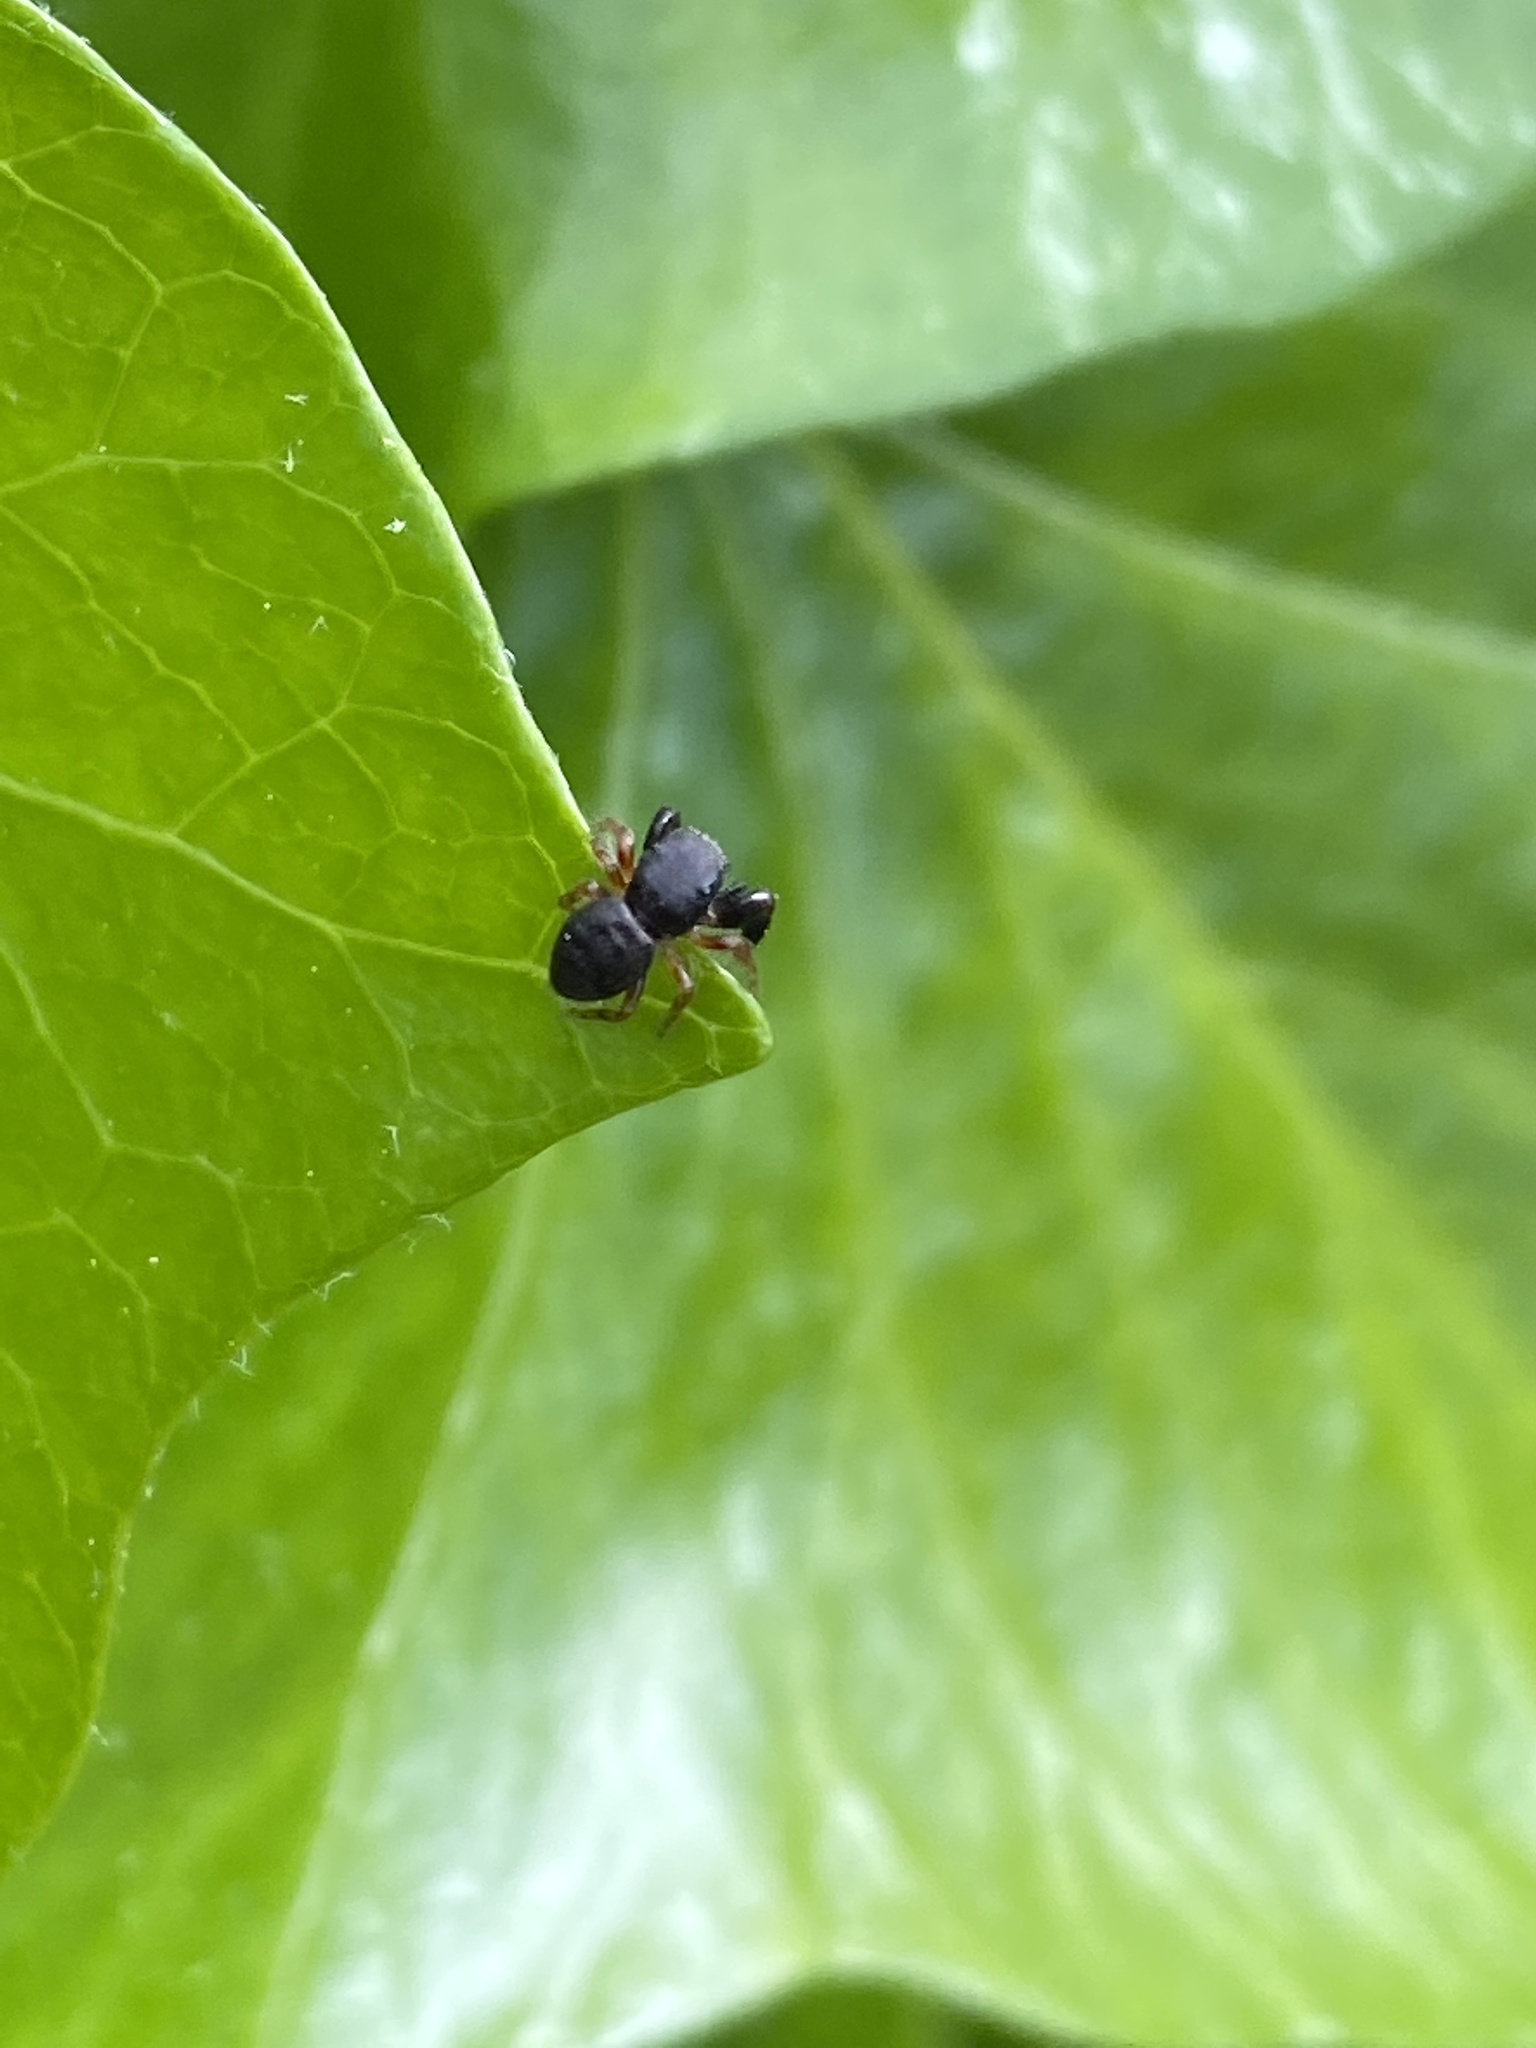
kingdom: Animalia
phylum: Arthropoda
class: Arachnida
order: Araneae
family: Salticidae
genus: Ballus
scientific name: Ballus chalybeius
